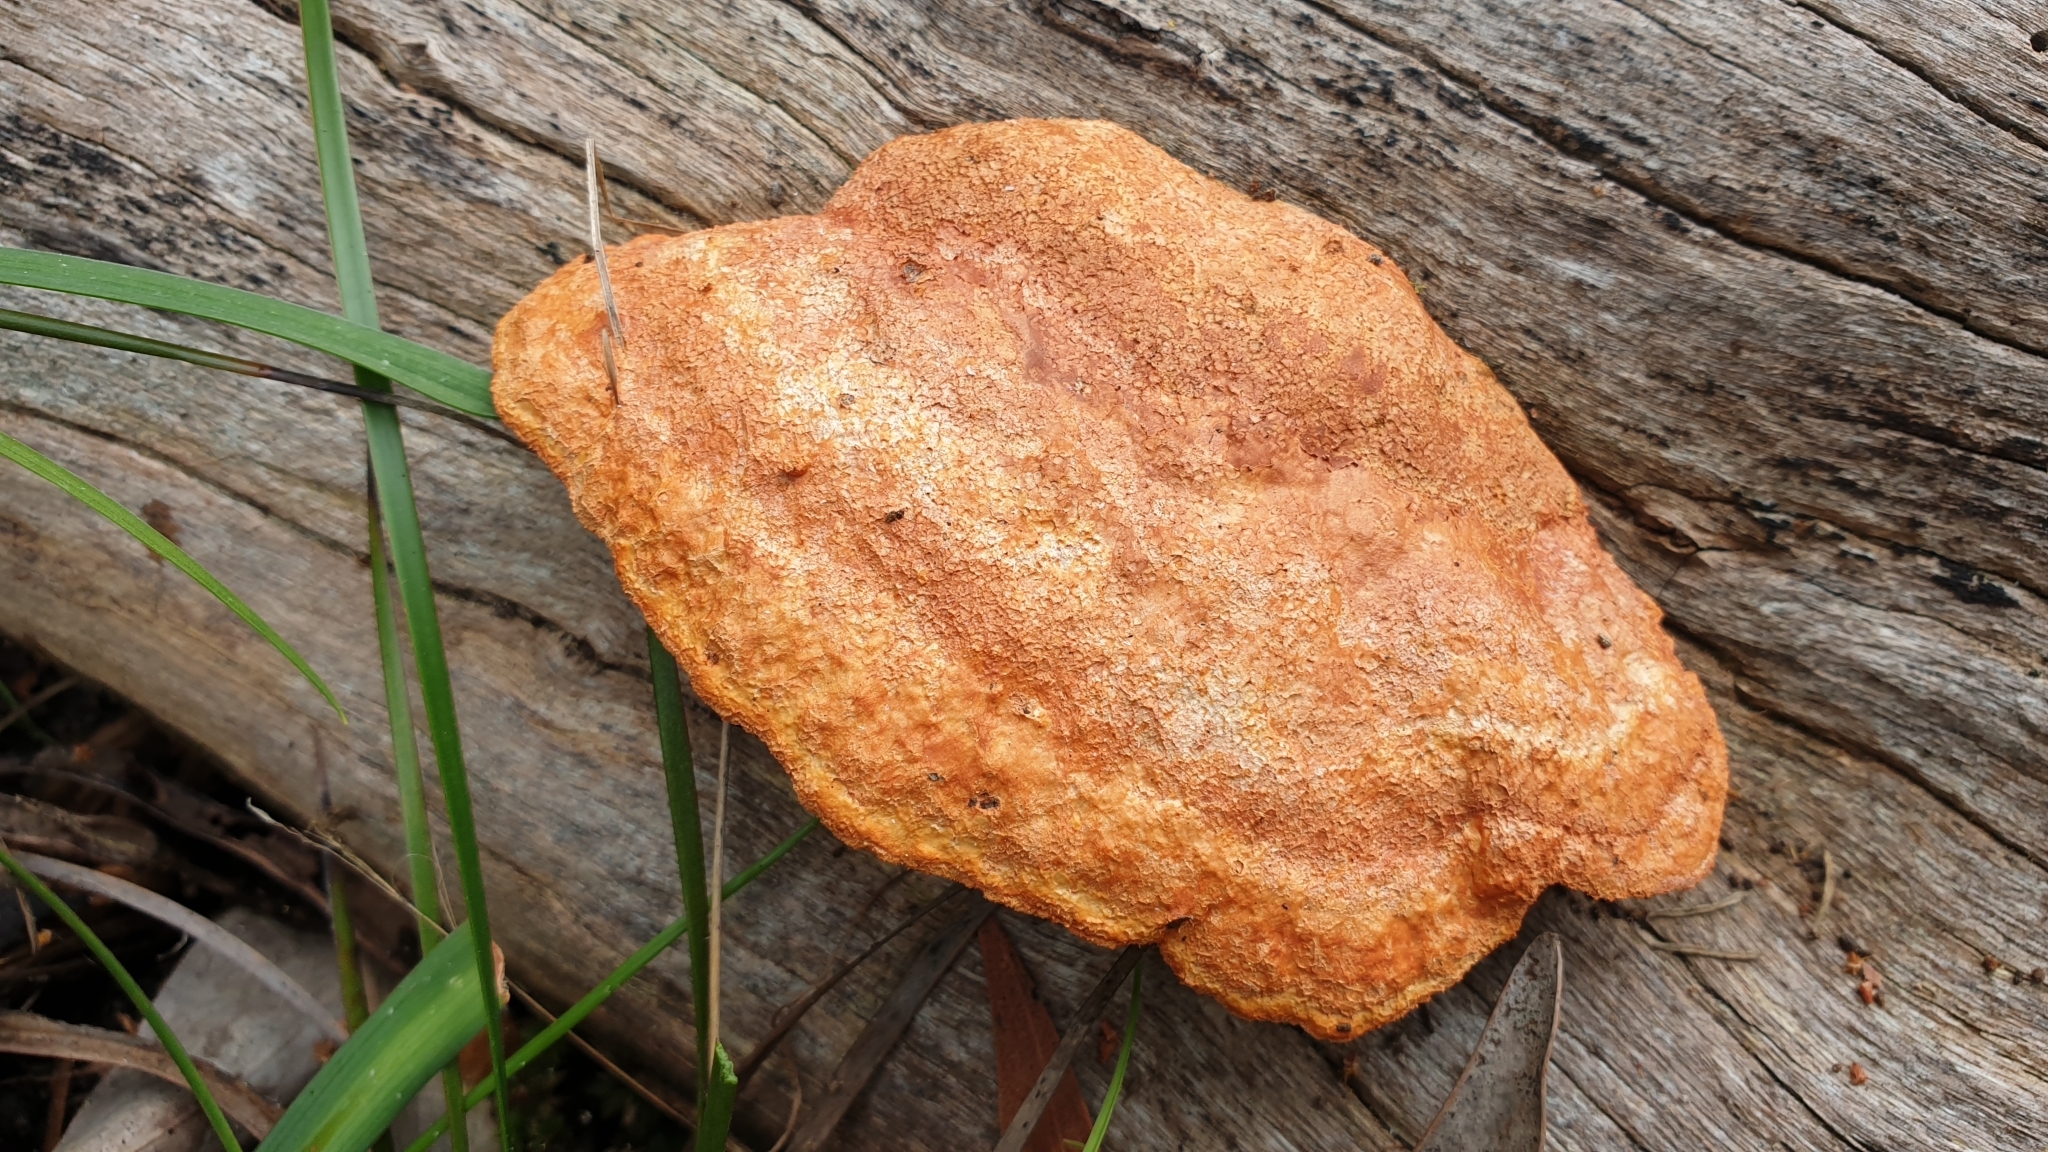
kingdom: Fungi
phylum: Basidiomycota
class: Agaricomycetes
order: Polyporales
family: Polyporaceae
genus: Trametes
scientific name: Trametes coccinea
